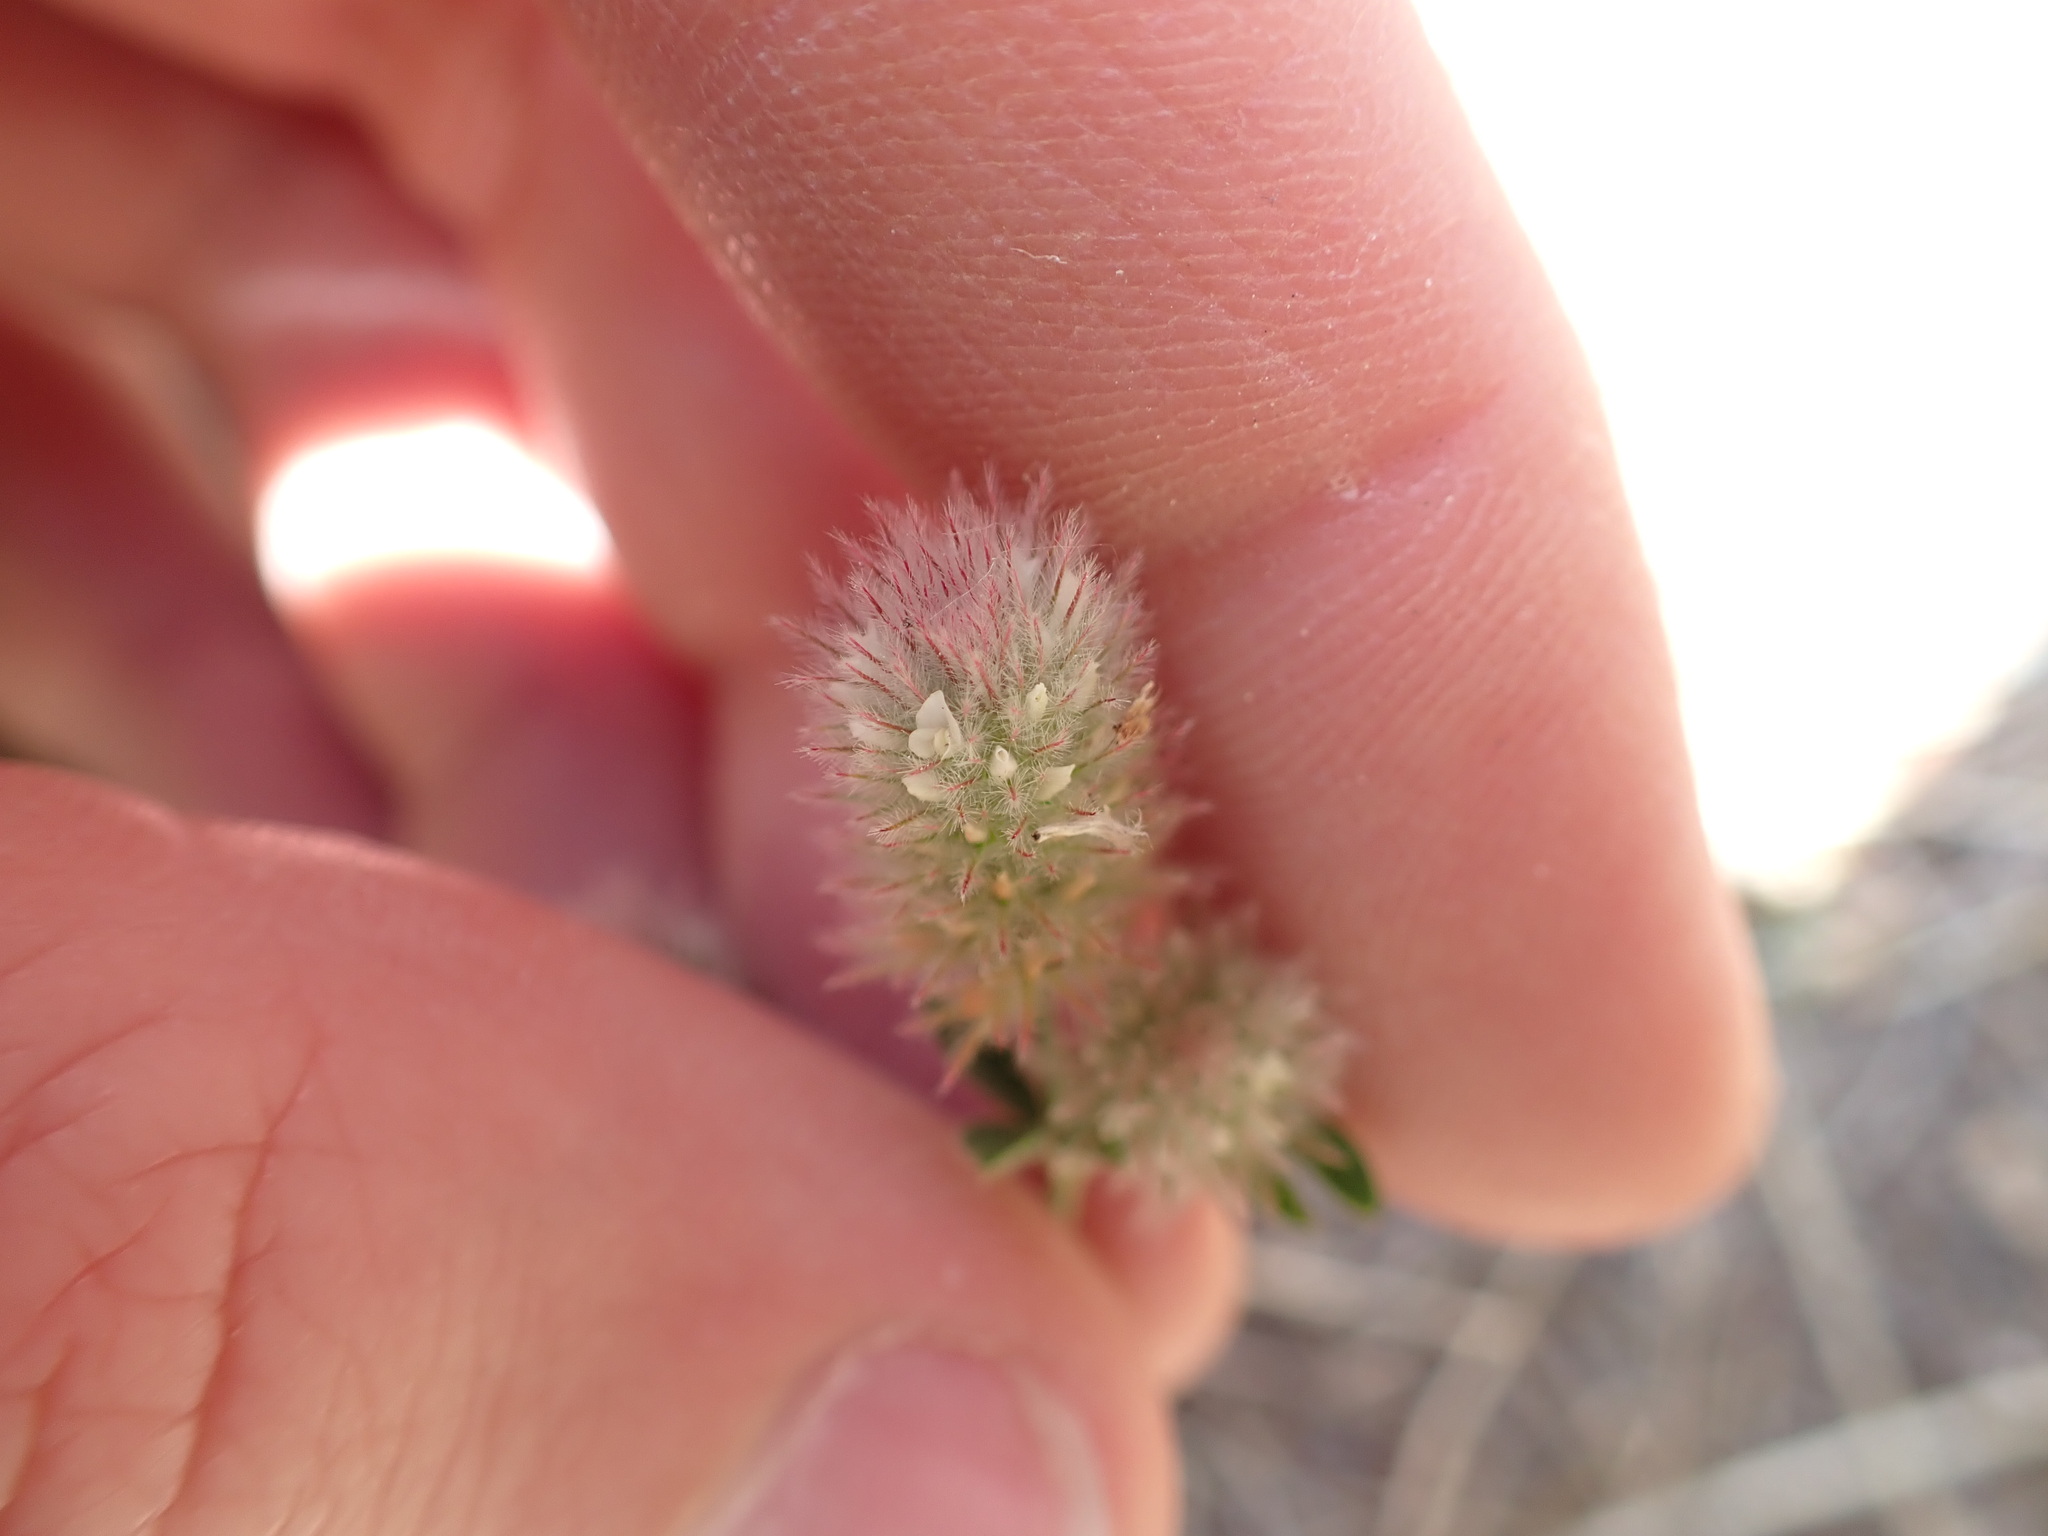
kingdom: Plantae
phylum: Tracheophyta
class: Magnoliopsida
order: Fabales
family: Fabaceae
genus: Trifolium
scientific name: Trifolium arvense
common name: Hare's-foot clover
